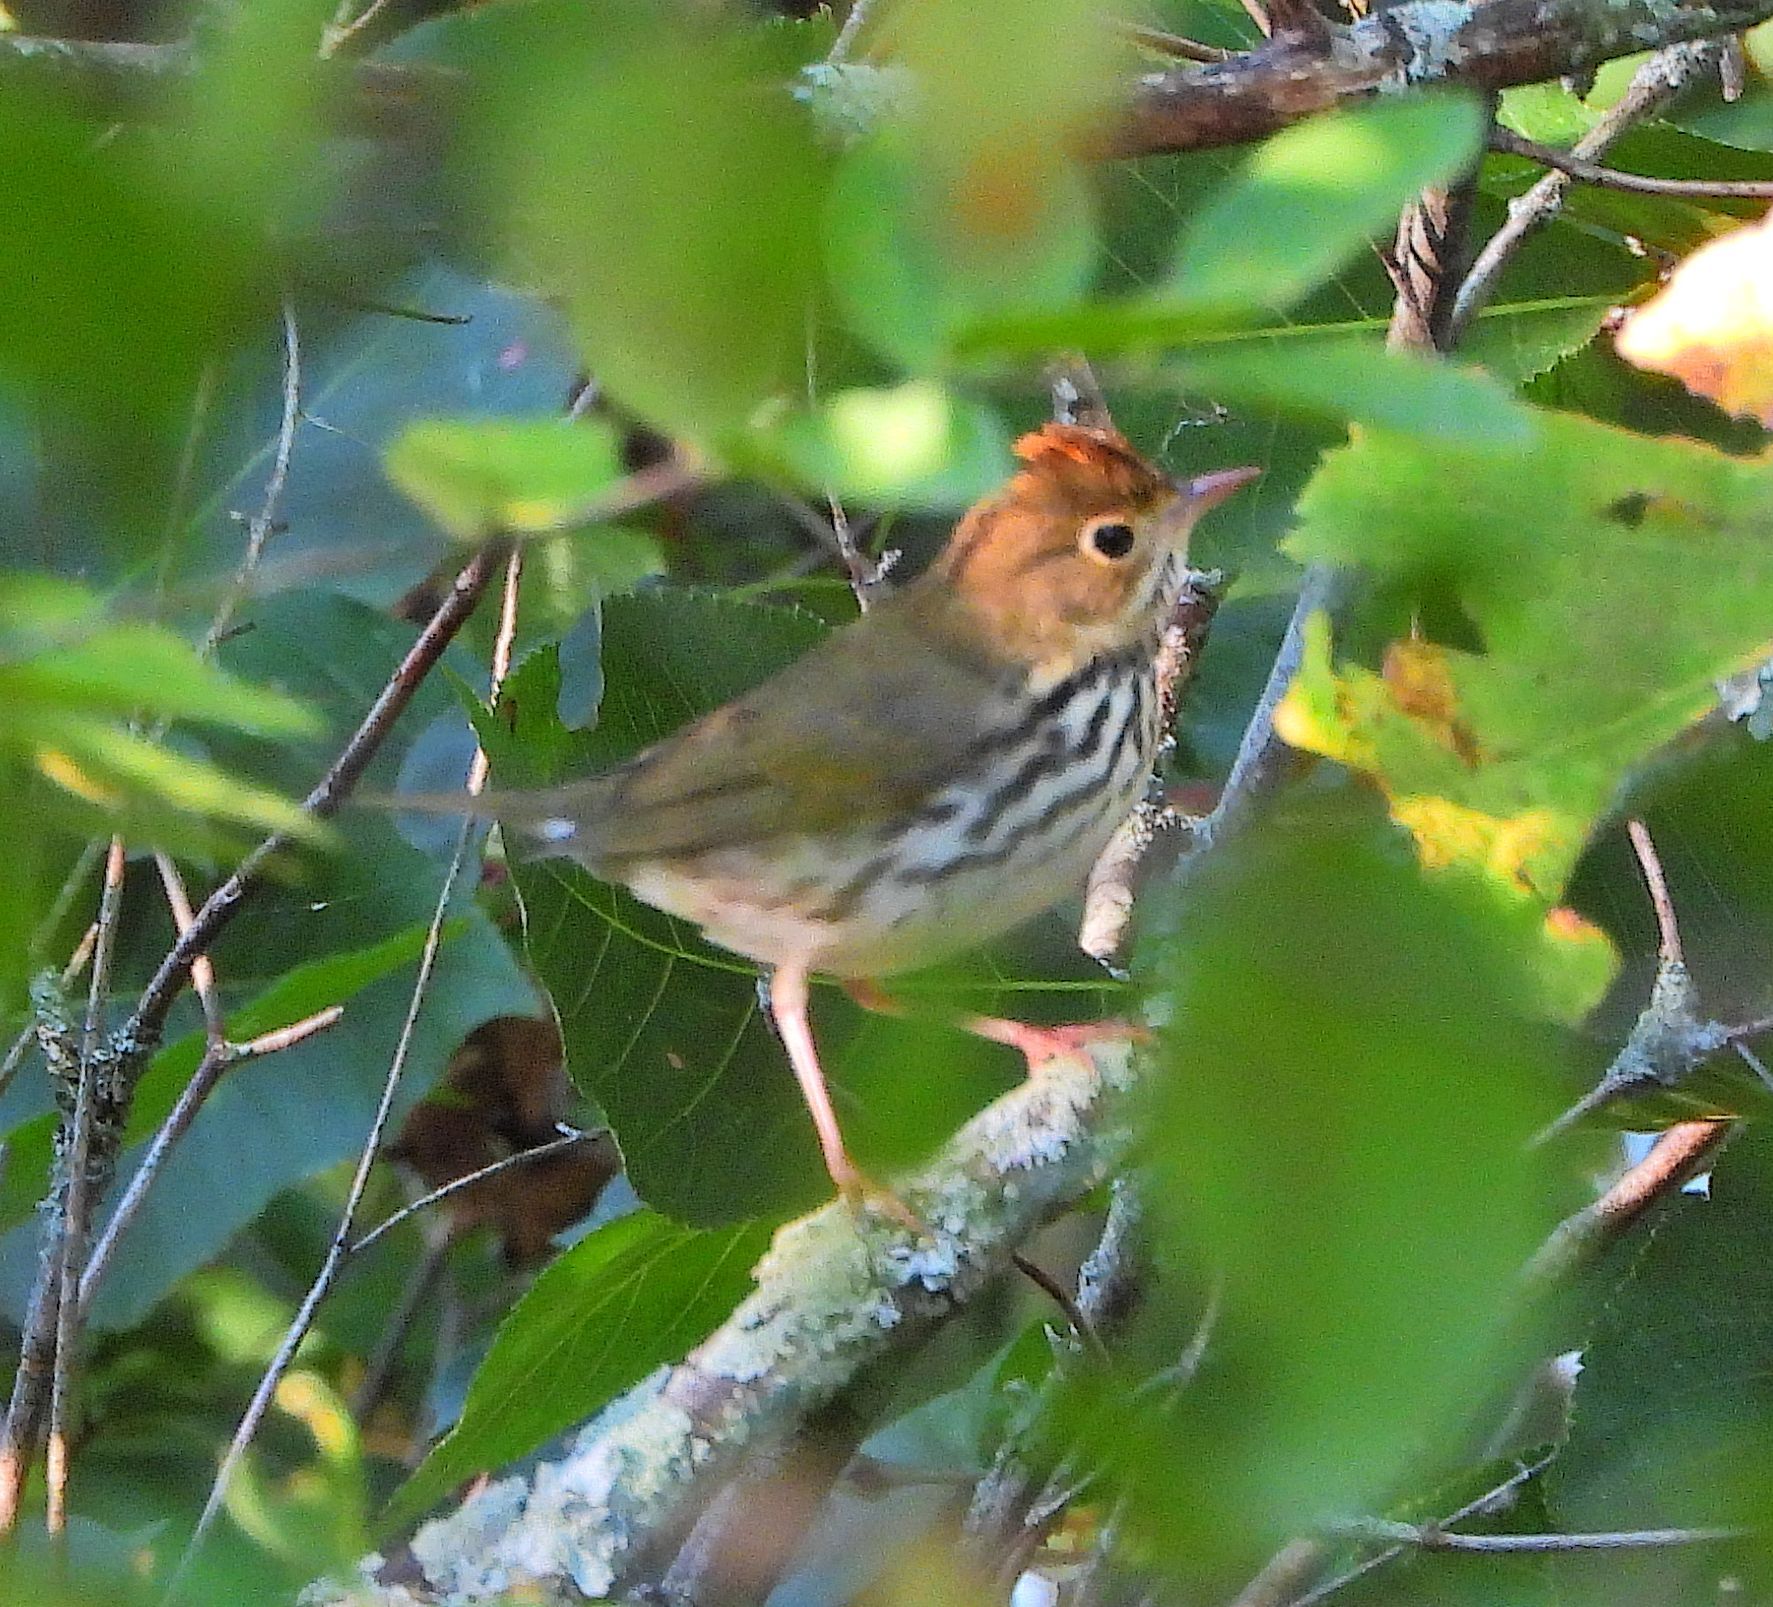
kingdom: Animalia
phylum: Chordata
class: Aves
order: Passeriformes
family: Parulidae
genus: Seiurus
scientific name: Seiurus aurocapilla
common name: Ovenbird
